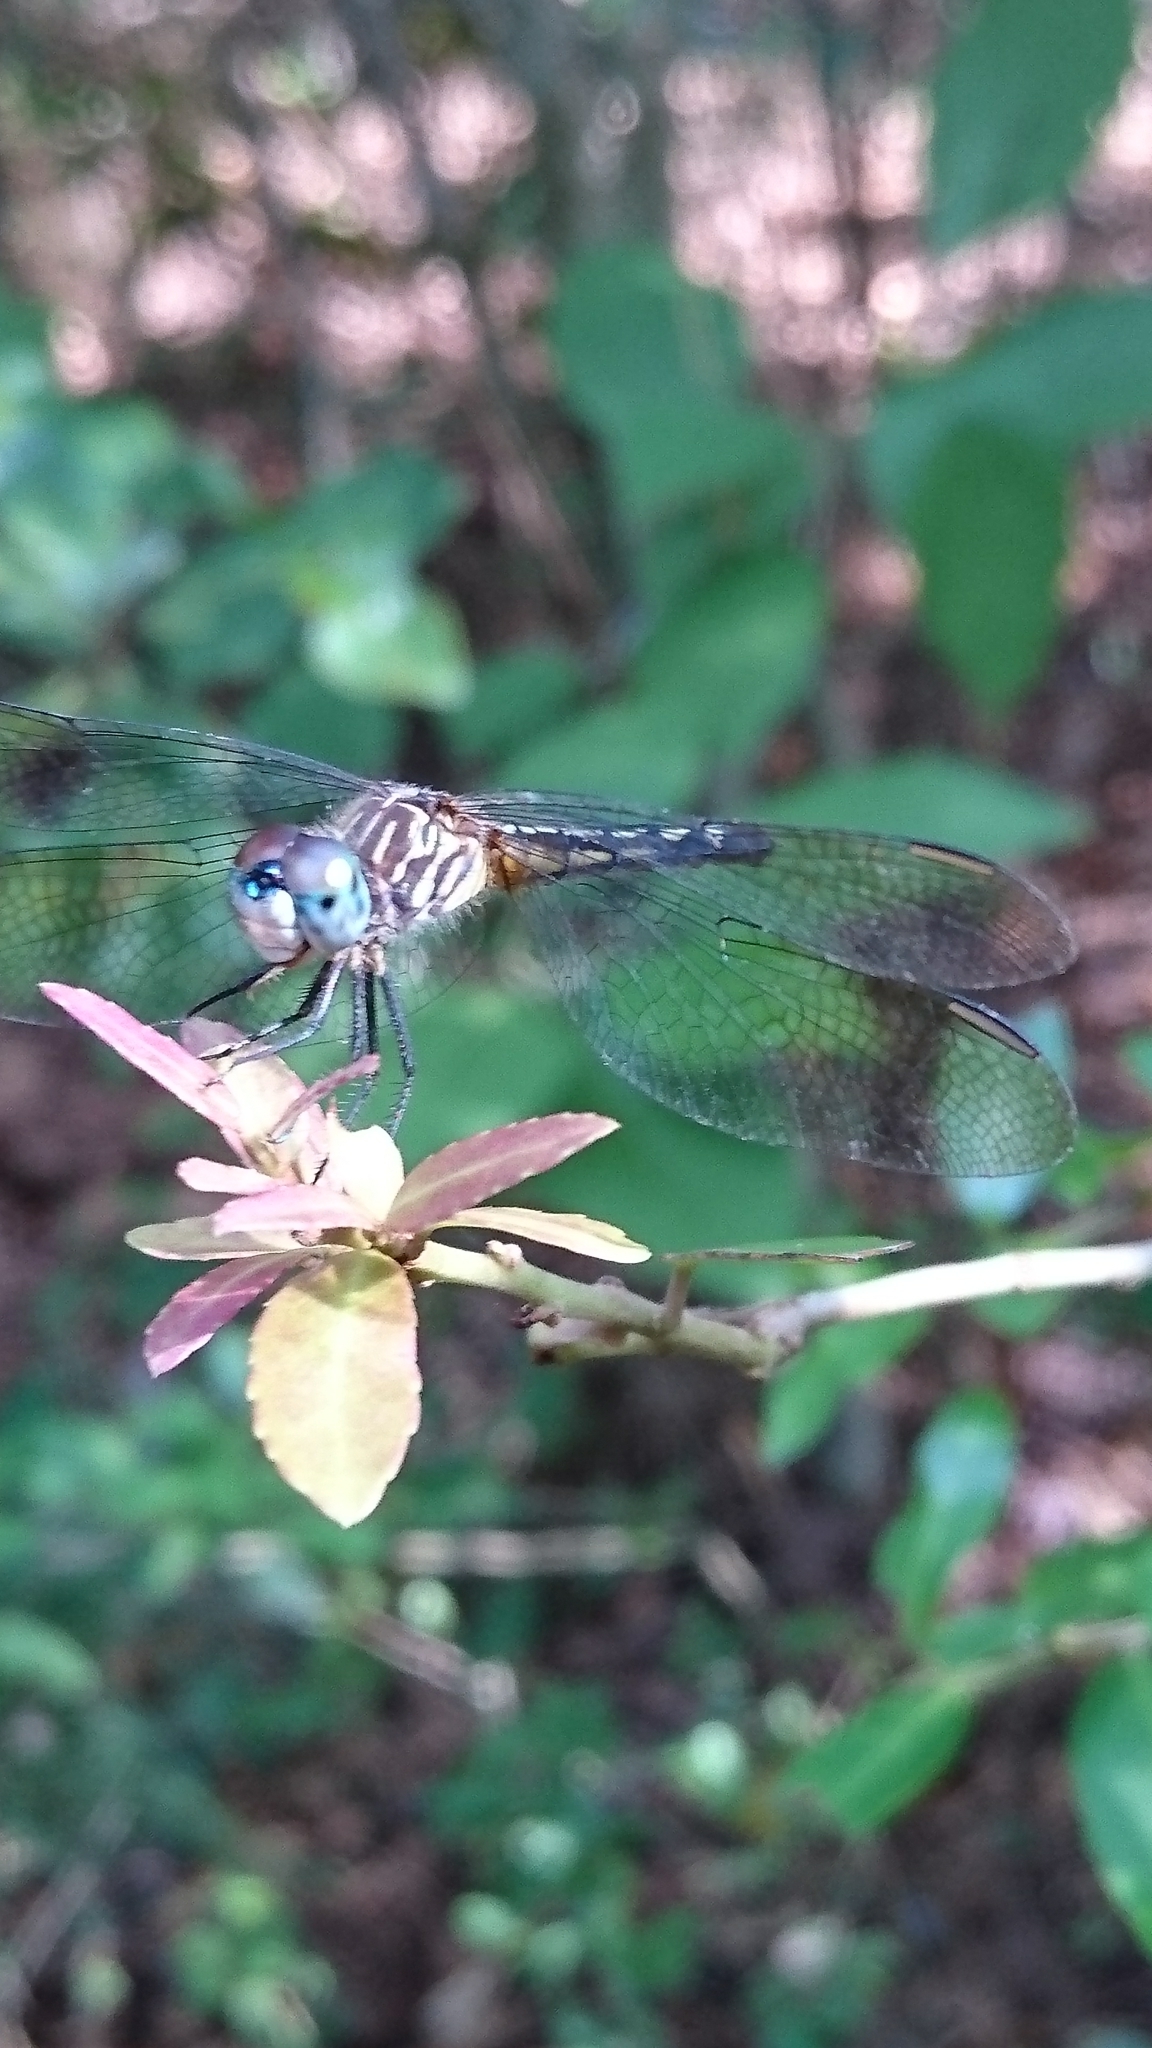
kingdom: Animalia
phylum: Arthropoda
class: Insecta
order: Odonata
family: Libellulidae
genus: Pachydiplax
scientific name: Pachydiplax longipennis
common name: Blue dasher
